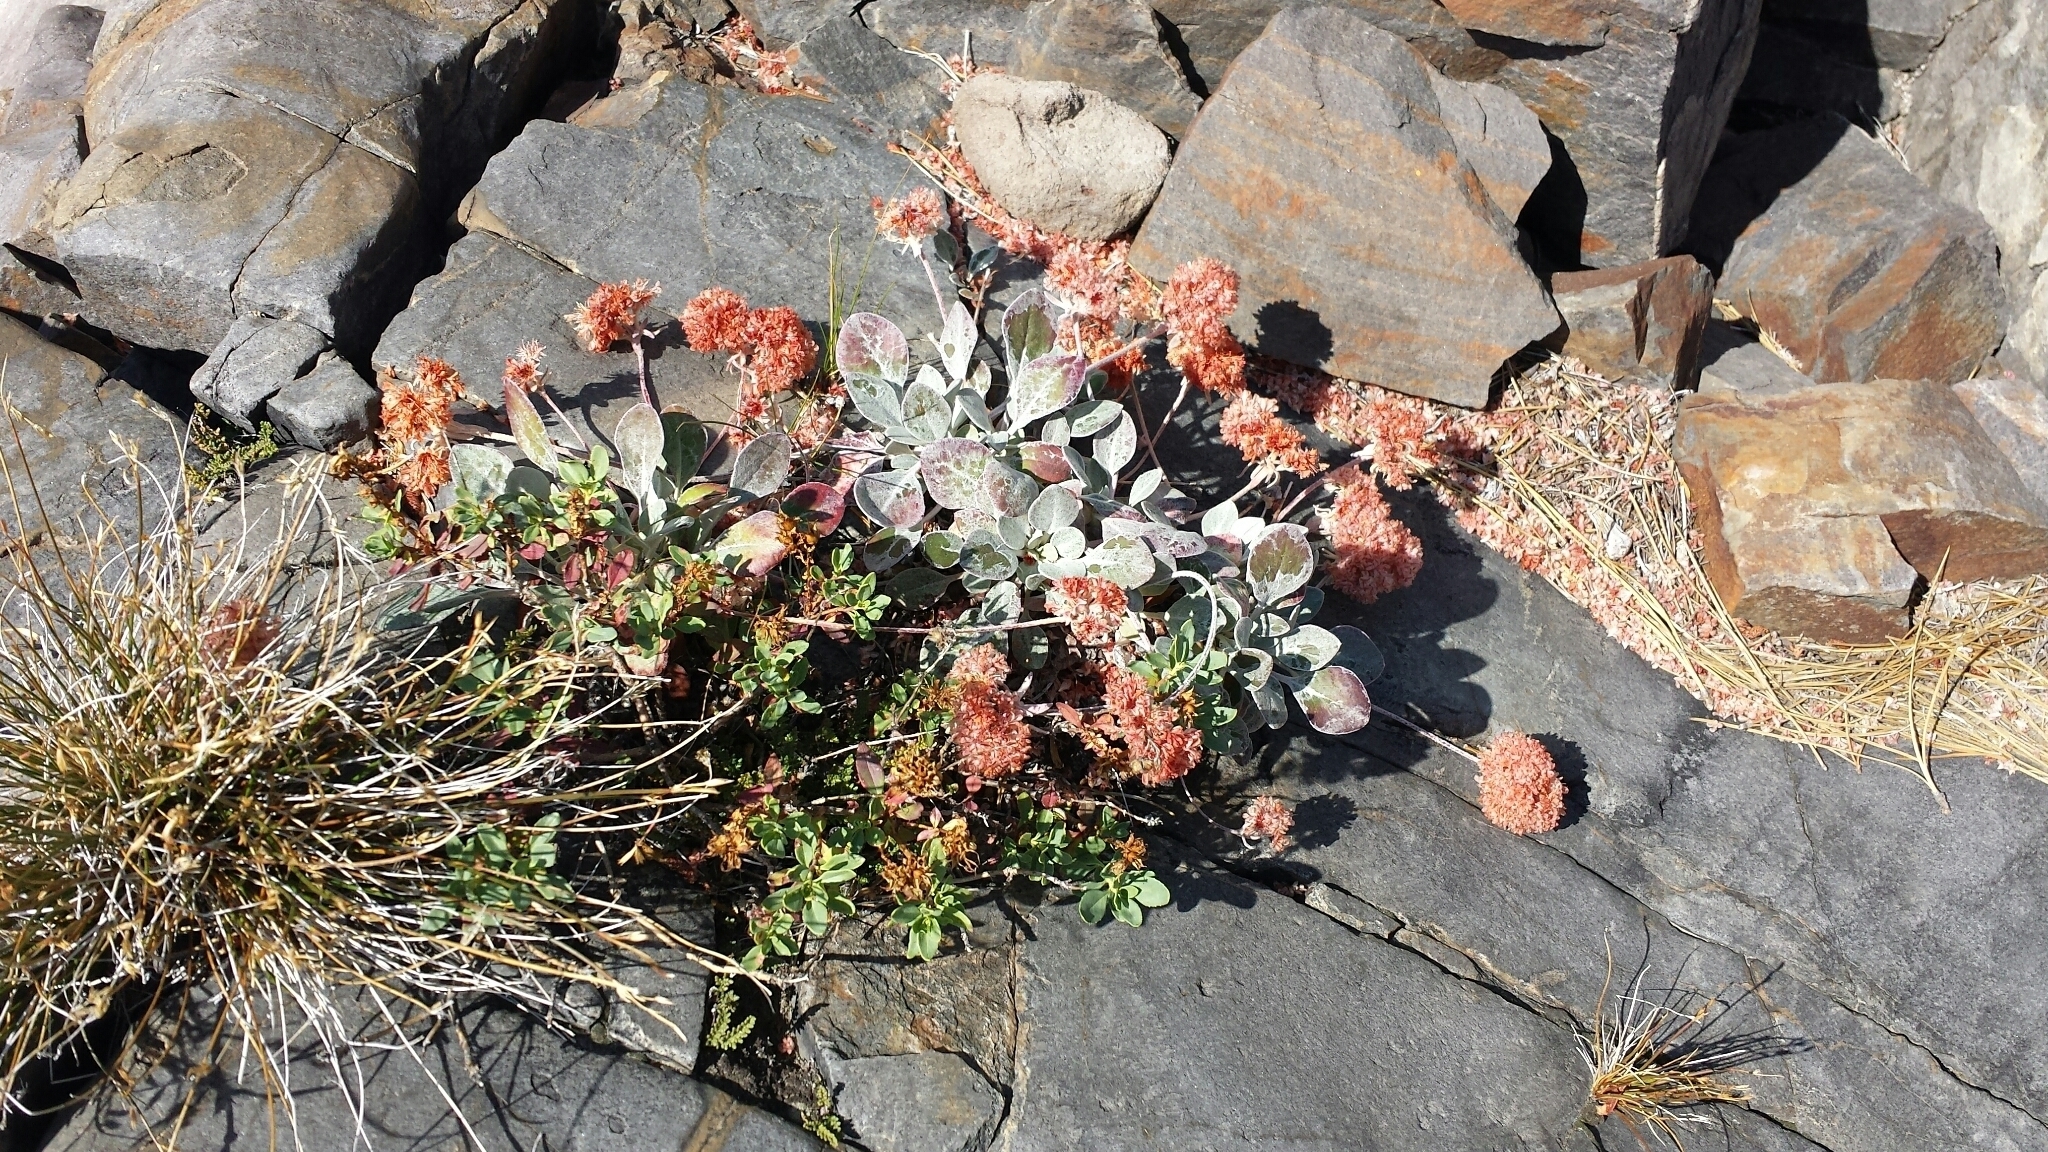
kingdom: Plantae
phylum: Tracheophyta
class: Magnoliopsida
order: Caryophyllales
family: Polygonaceae
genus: Eriogonum
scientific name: Eriogonum ursinum
